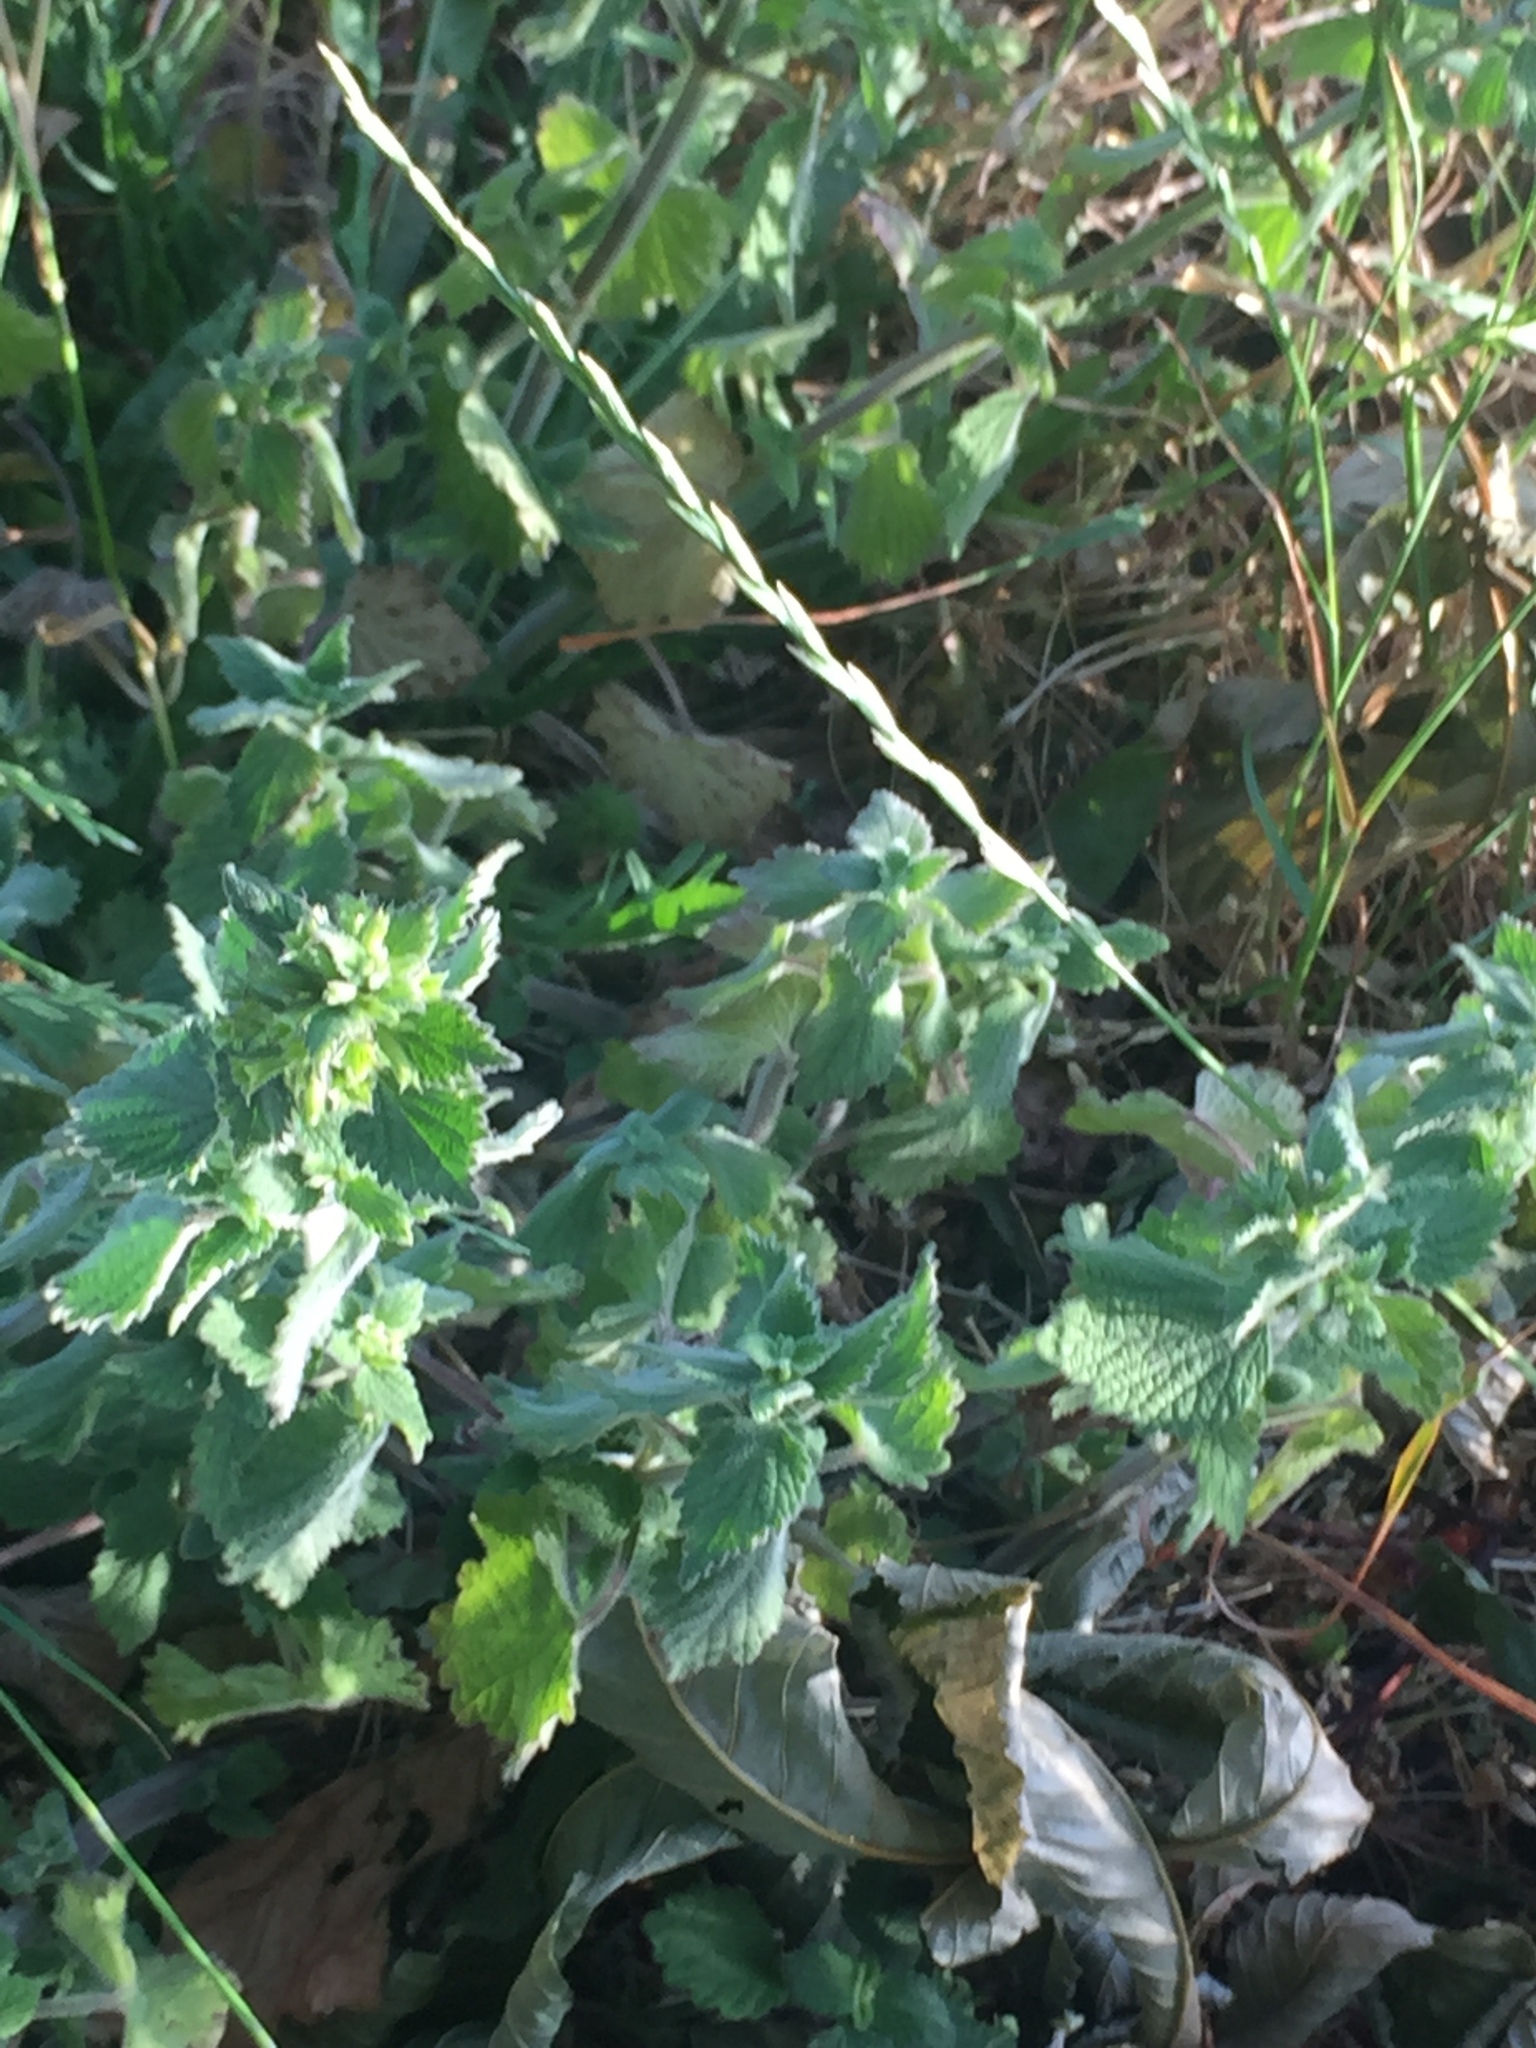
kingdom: Plantae
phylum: Tracheophyta
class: Magnoliopsida
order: Lamiales
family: Lamiaceae
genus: Ballota
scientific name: Ballota nigra
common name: Black horehound
